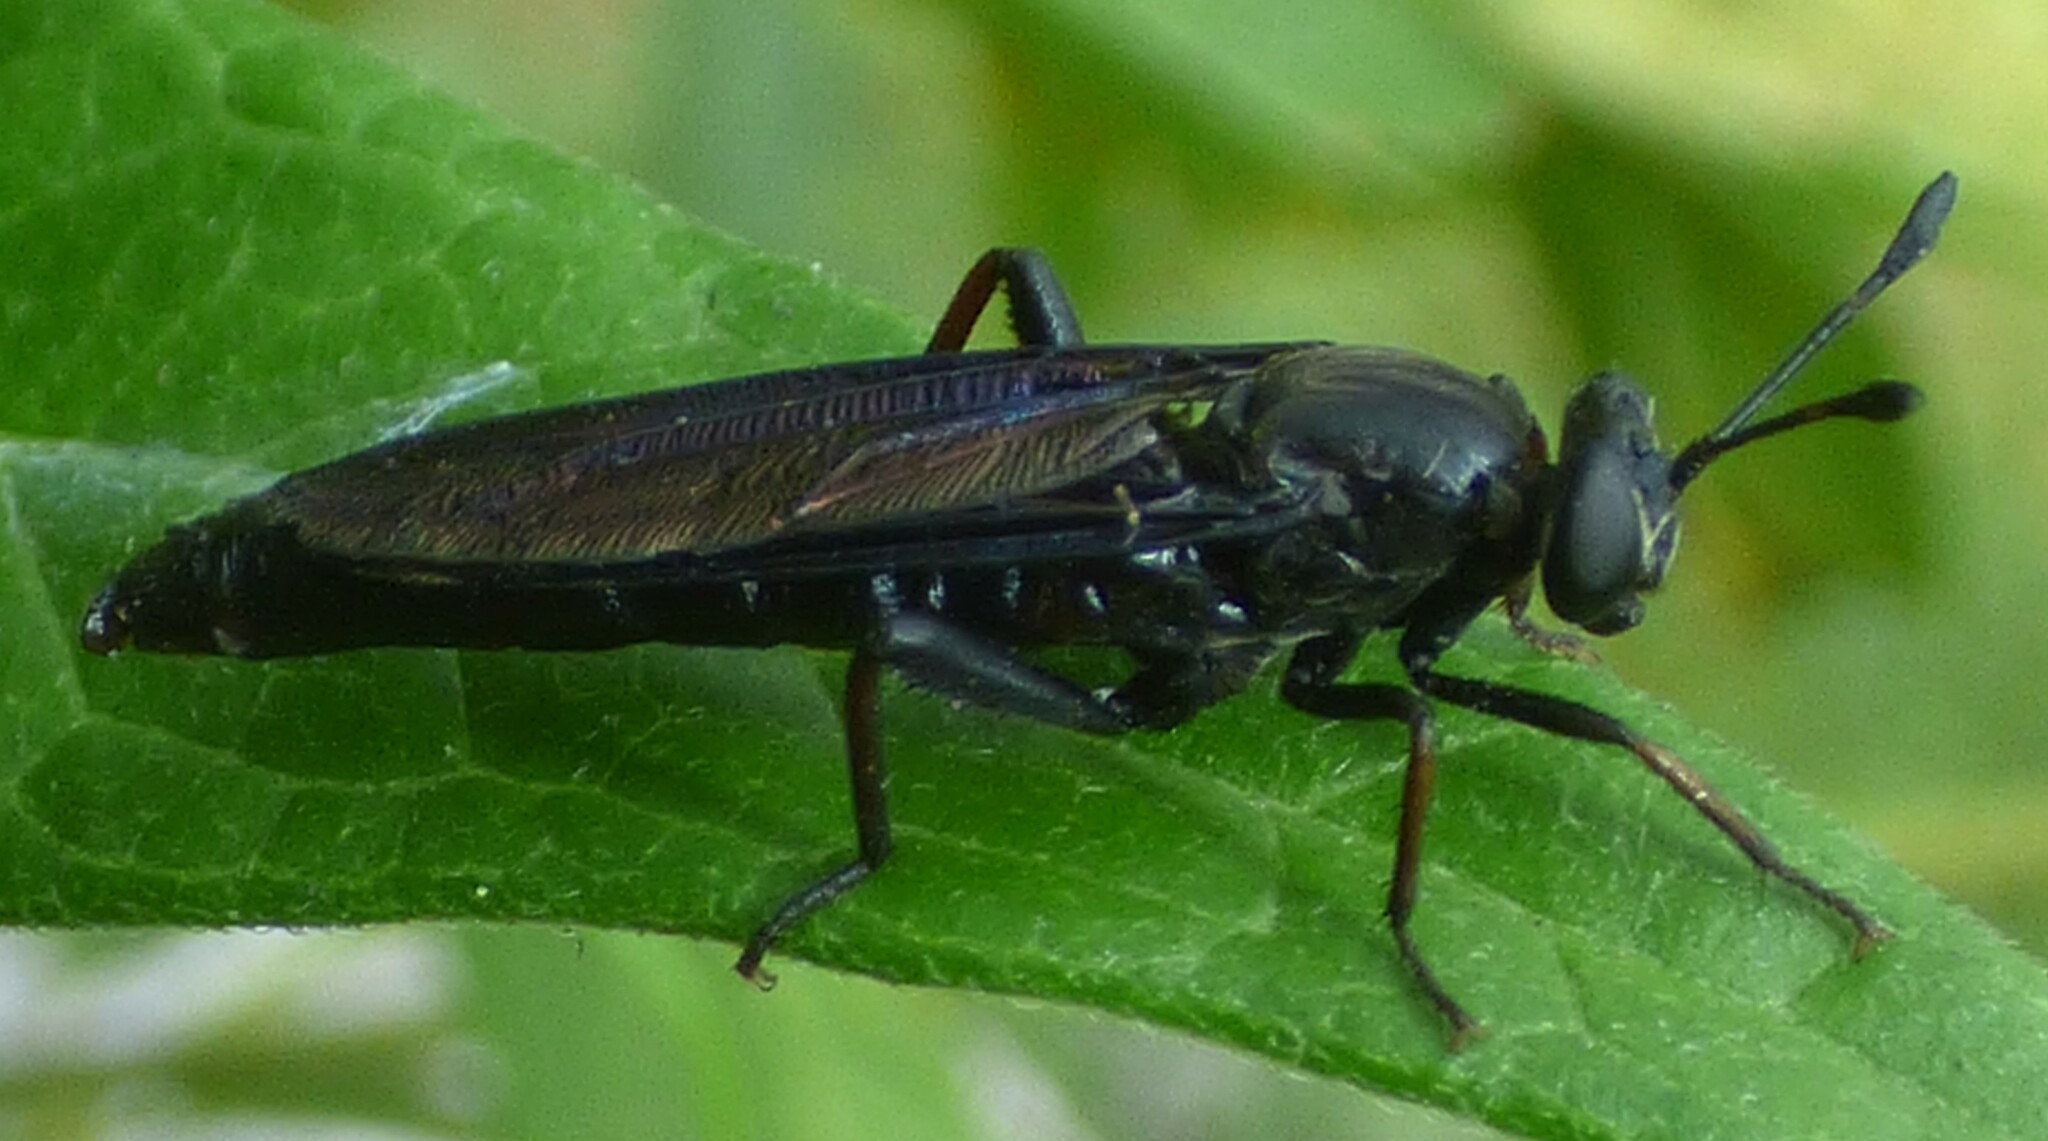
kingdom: Animalia
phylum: Arthropoda
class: Insecta
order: Diptera
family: Mydidae
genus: Phyllomydas
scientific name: Phyllomydas quercus
